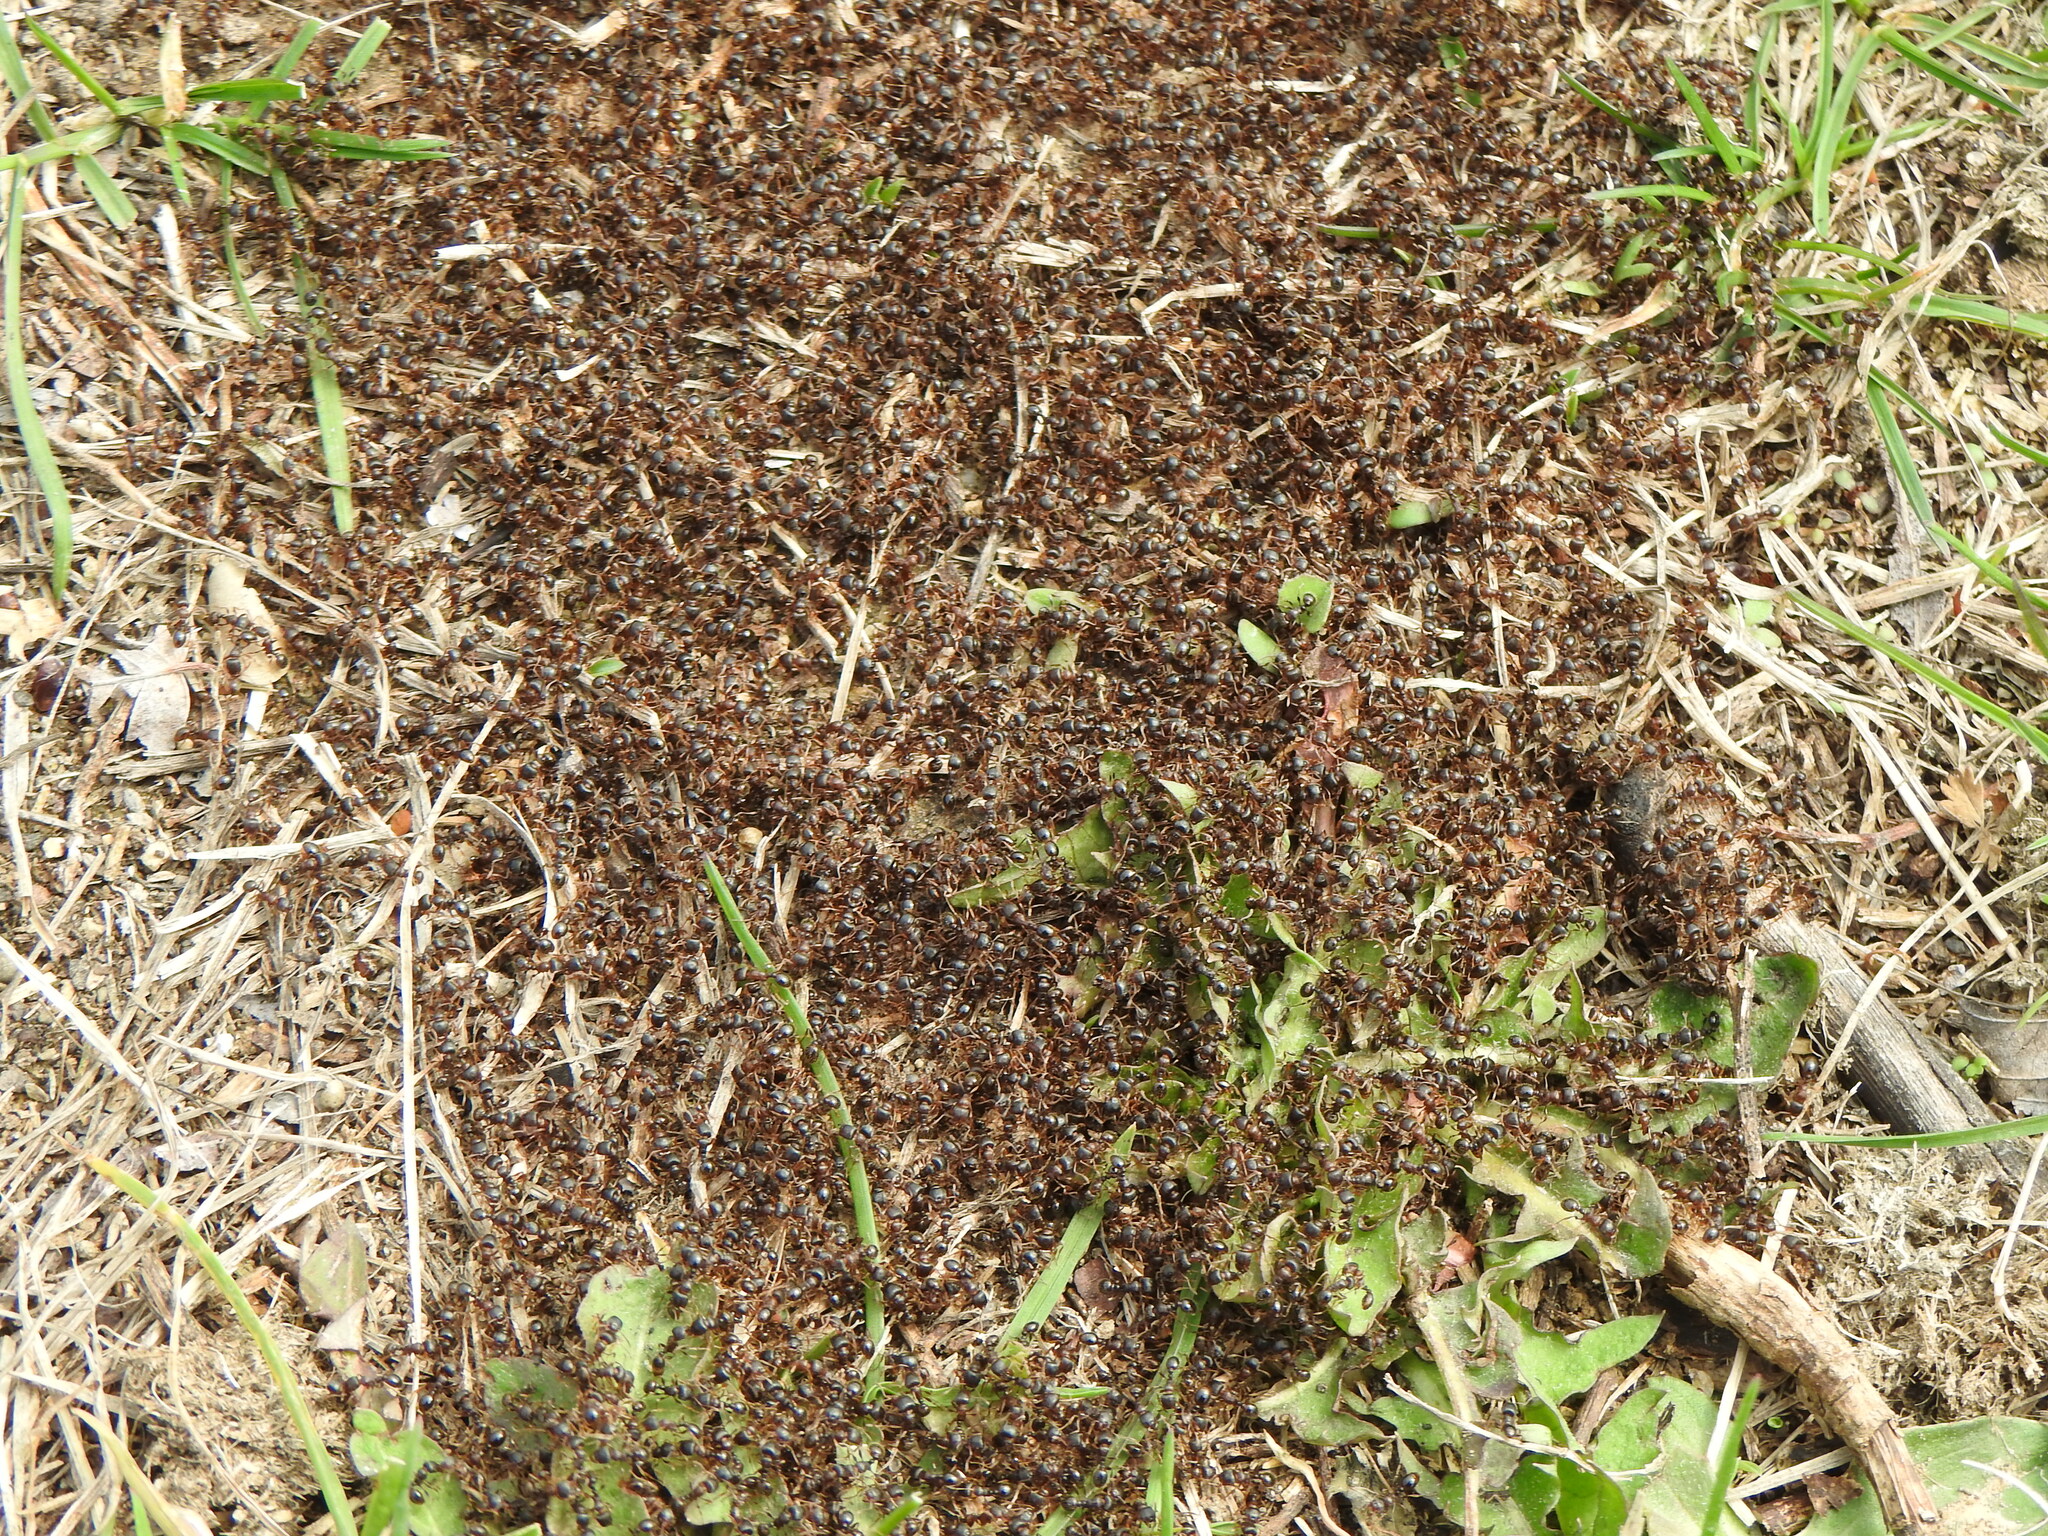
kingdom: Animalia
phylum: Arthropoda
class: Insecta
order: Hymenoptera
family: Formicidae
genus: Tetramorium
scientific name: Tetramorium immigrans
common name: Pavement ant
